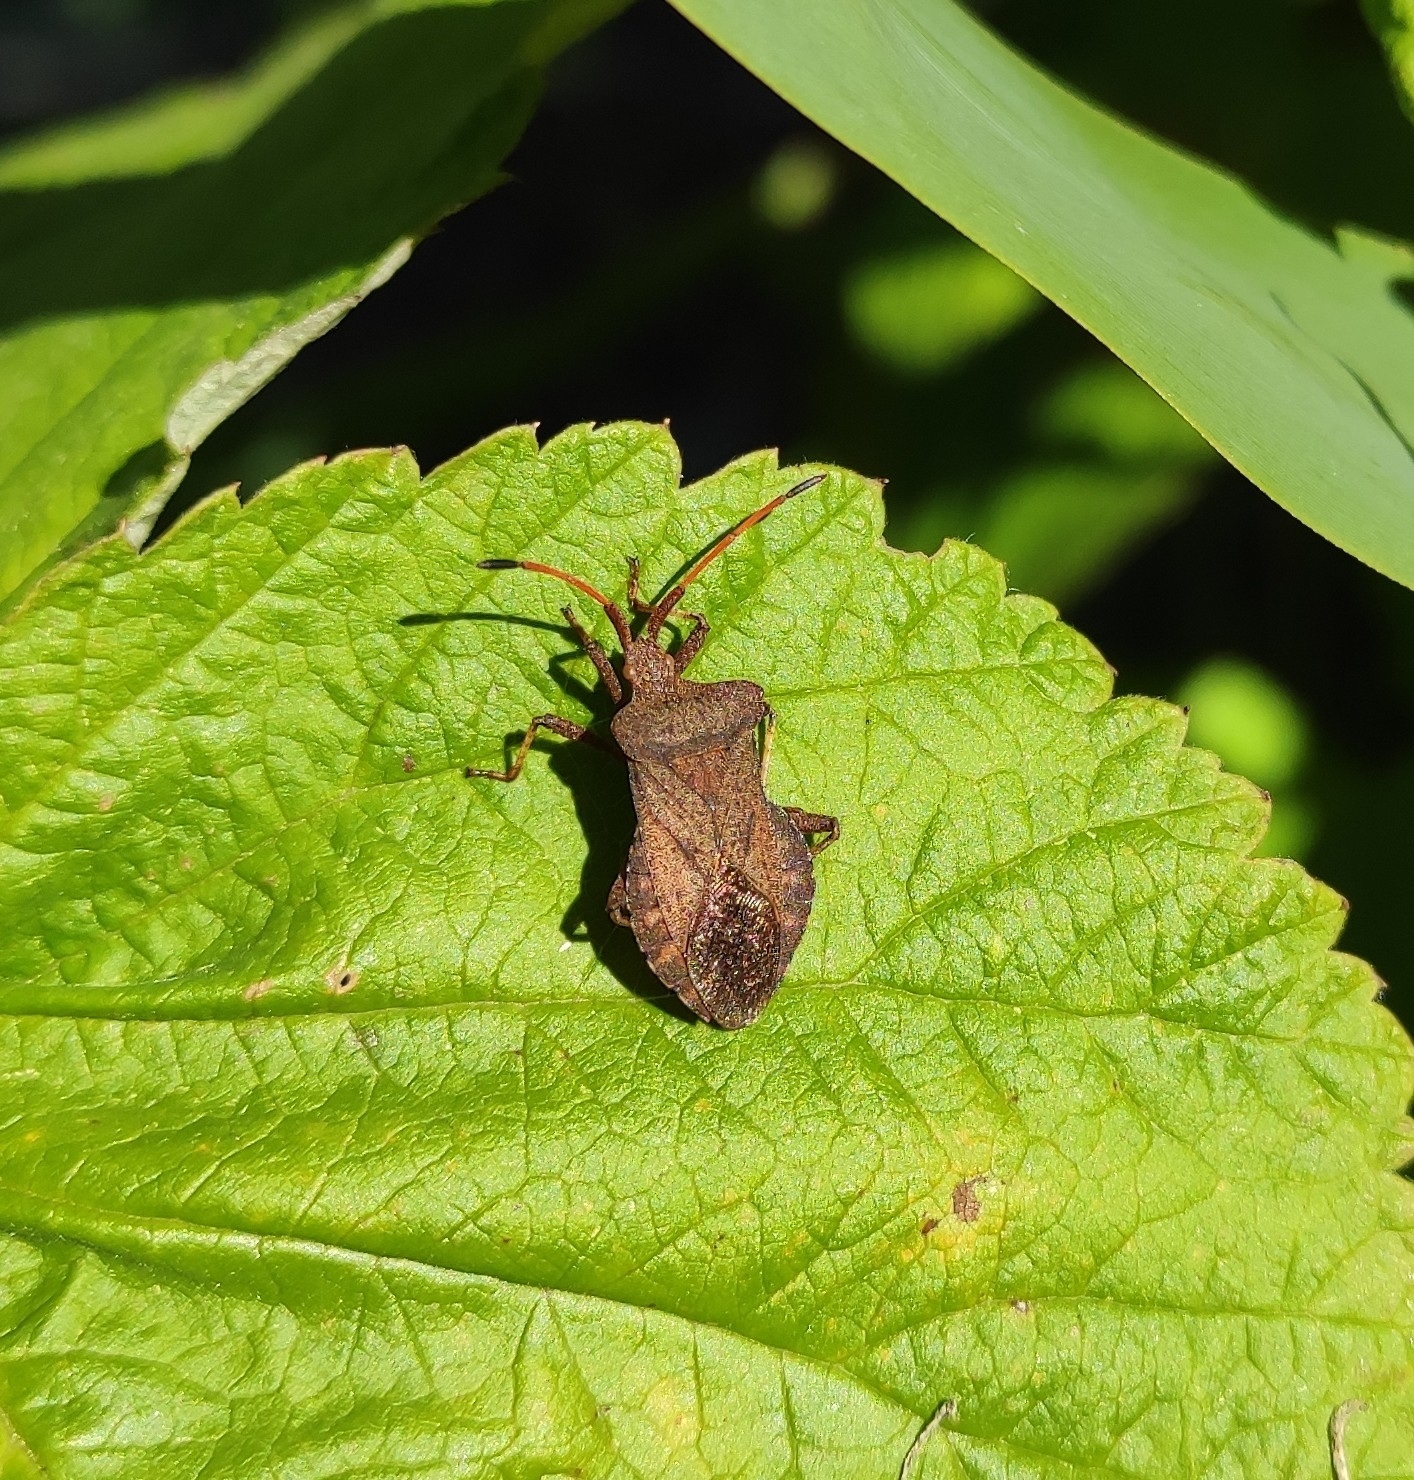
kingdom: Animalia
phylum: Arthropoda
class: Insecta
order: Hemiptera
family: Coreidae
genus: Coreus
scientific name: Coreus marginatus
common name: Dock bug
